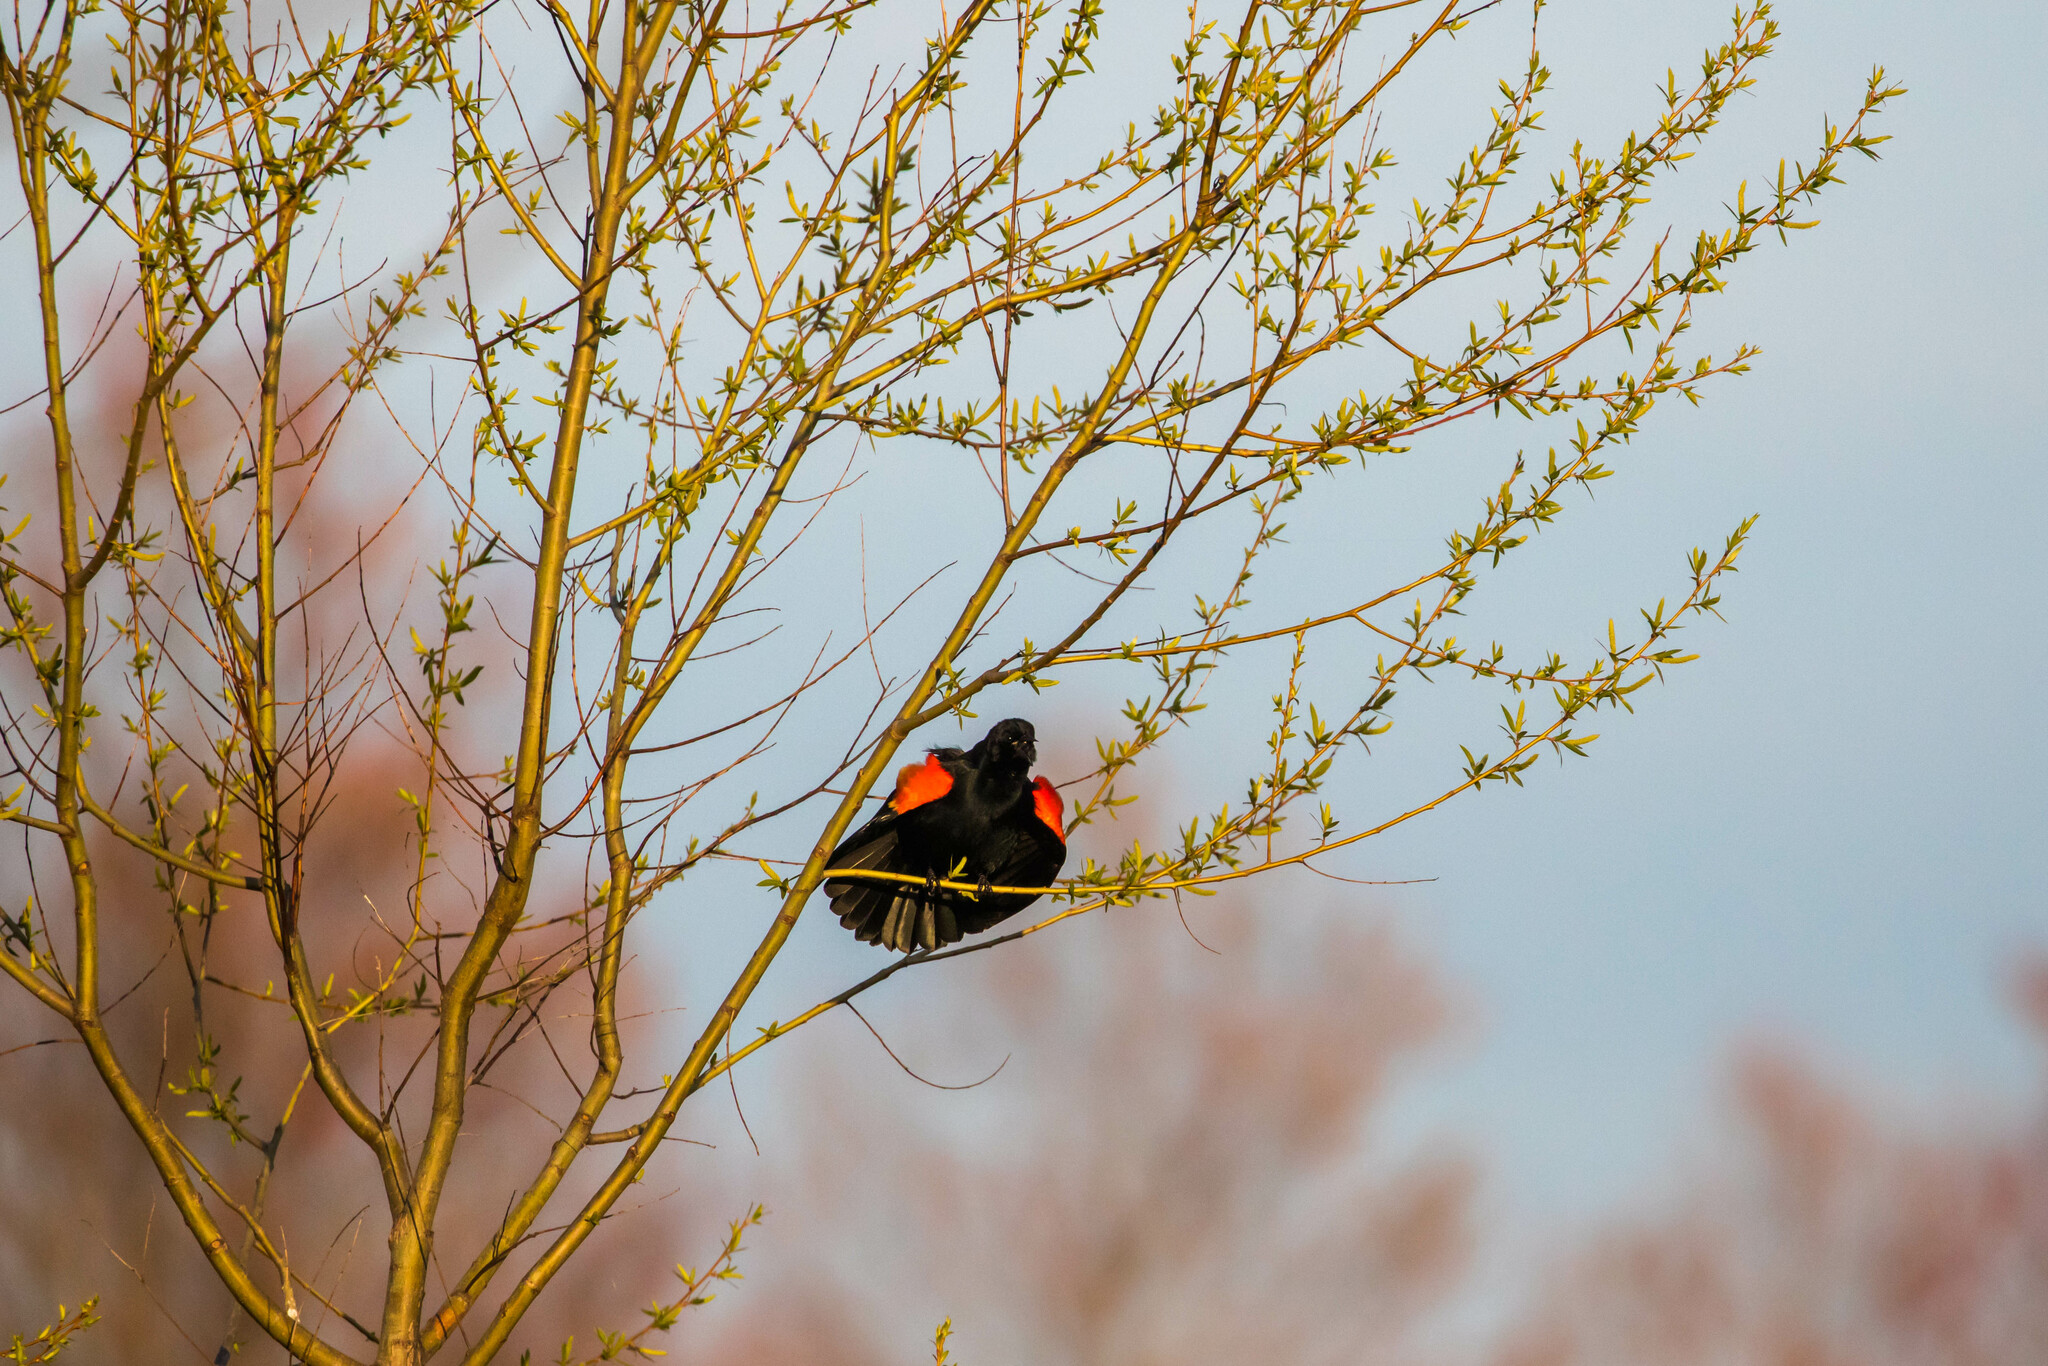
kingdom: Animalia
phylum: Chordata
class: Aves
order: Passeriformes
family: Icteridae
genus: Agelaius
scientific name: Agelaius phoeniceus
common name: Red-winged blackbird
